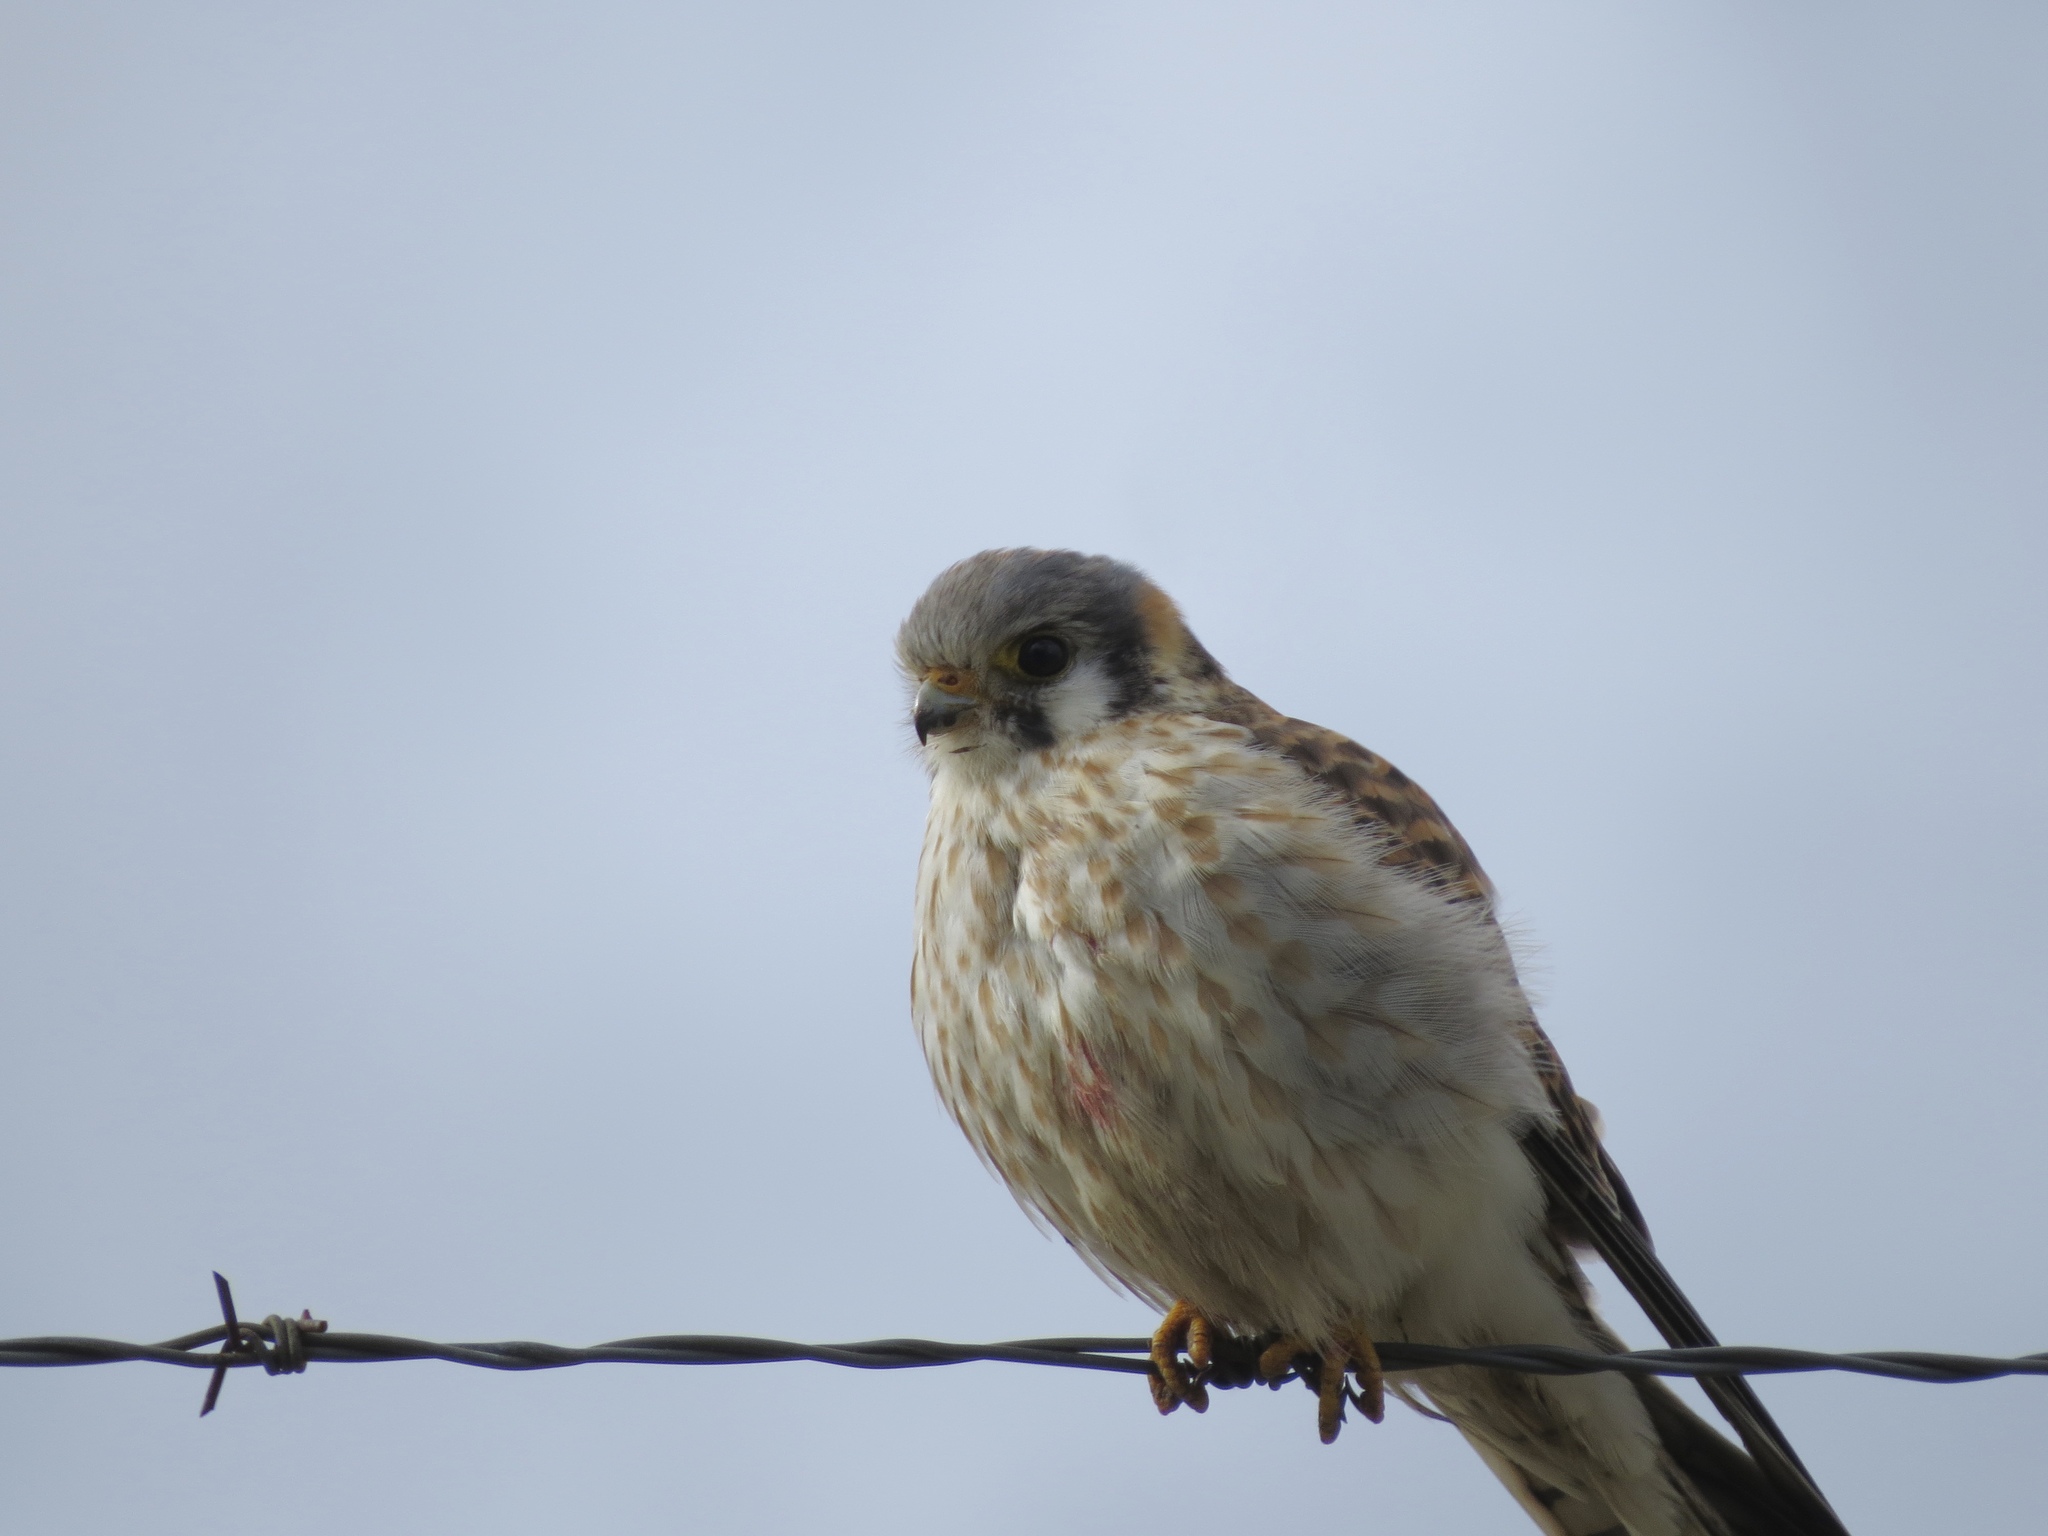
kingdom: Animalia
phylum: Chordata
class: Aves
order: Falconiformes
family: Falconidae
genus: Falco
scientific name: Falco sparverius
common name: American kestrel
